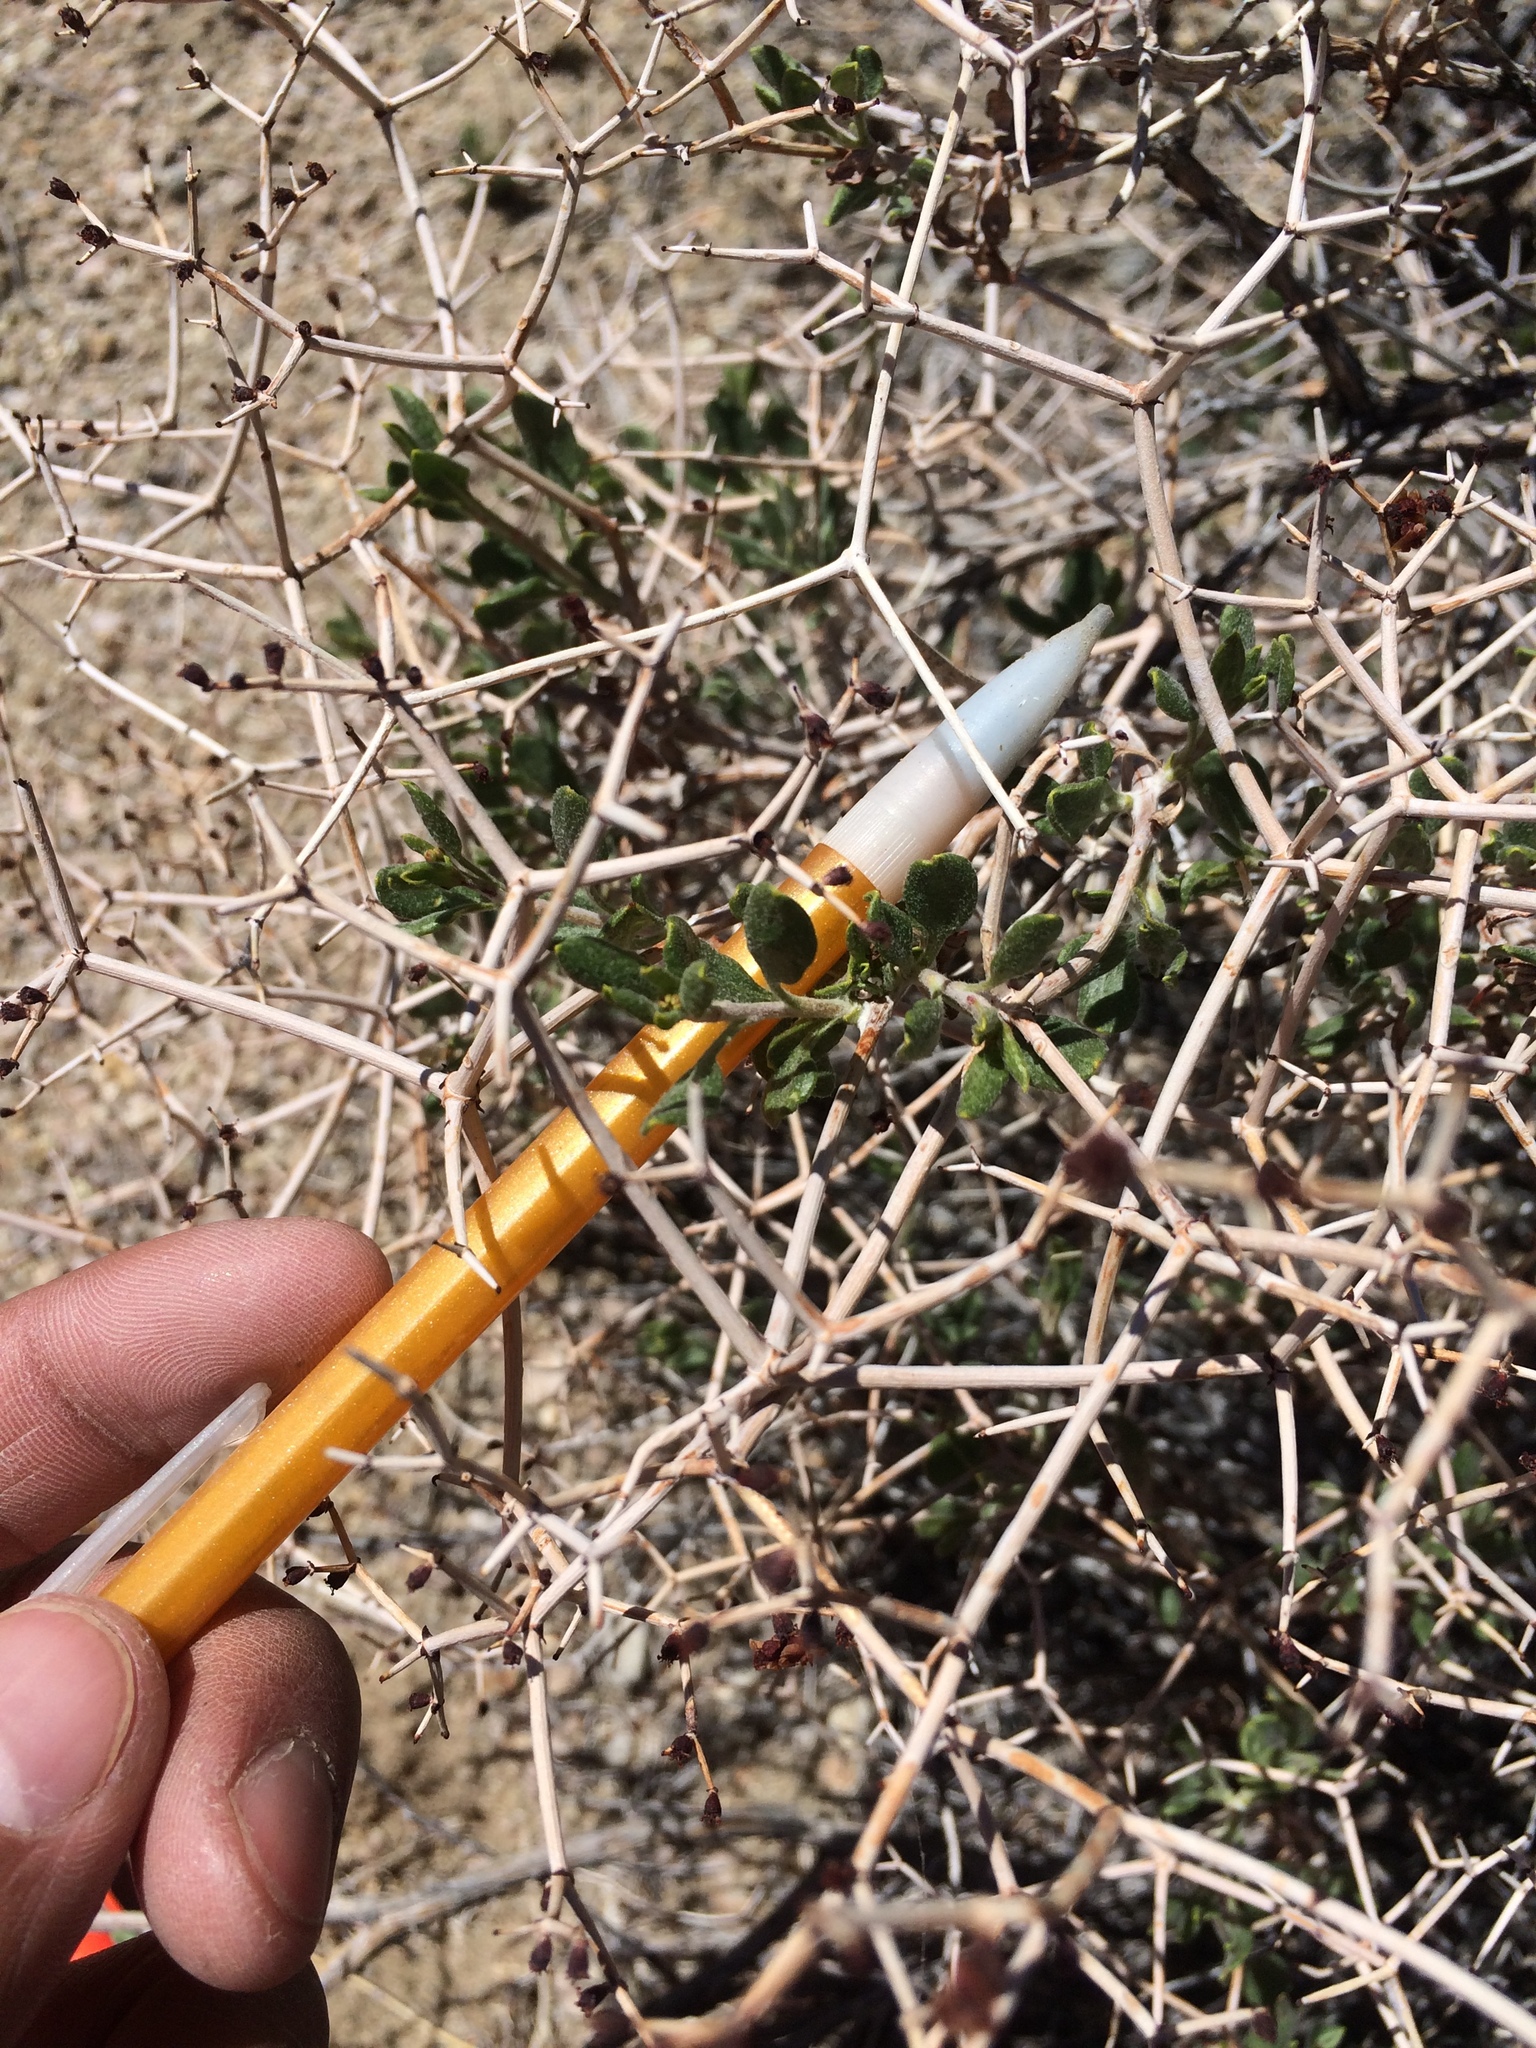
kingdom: Plantae
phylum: Tracheophyta
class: Magnoliopsida
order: Caryophyllales
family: Polygonaceae
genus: Eriogonum
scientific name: Eriogonum heermannii
